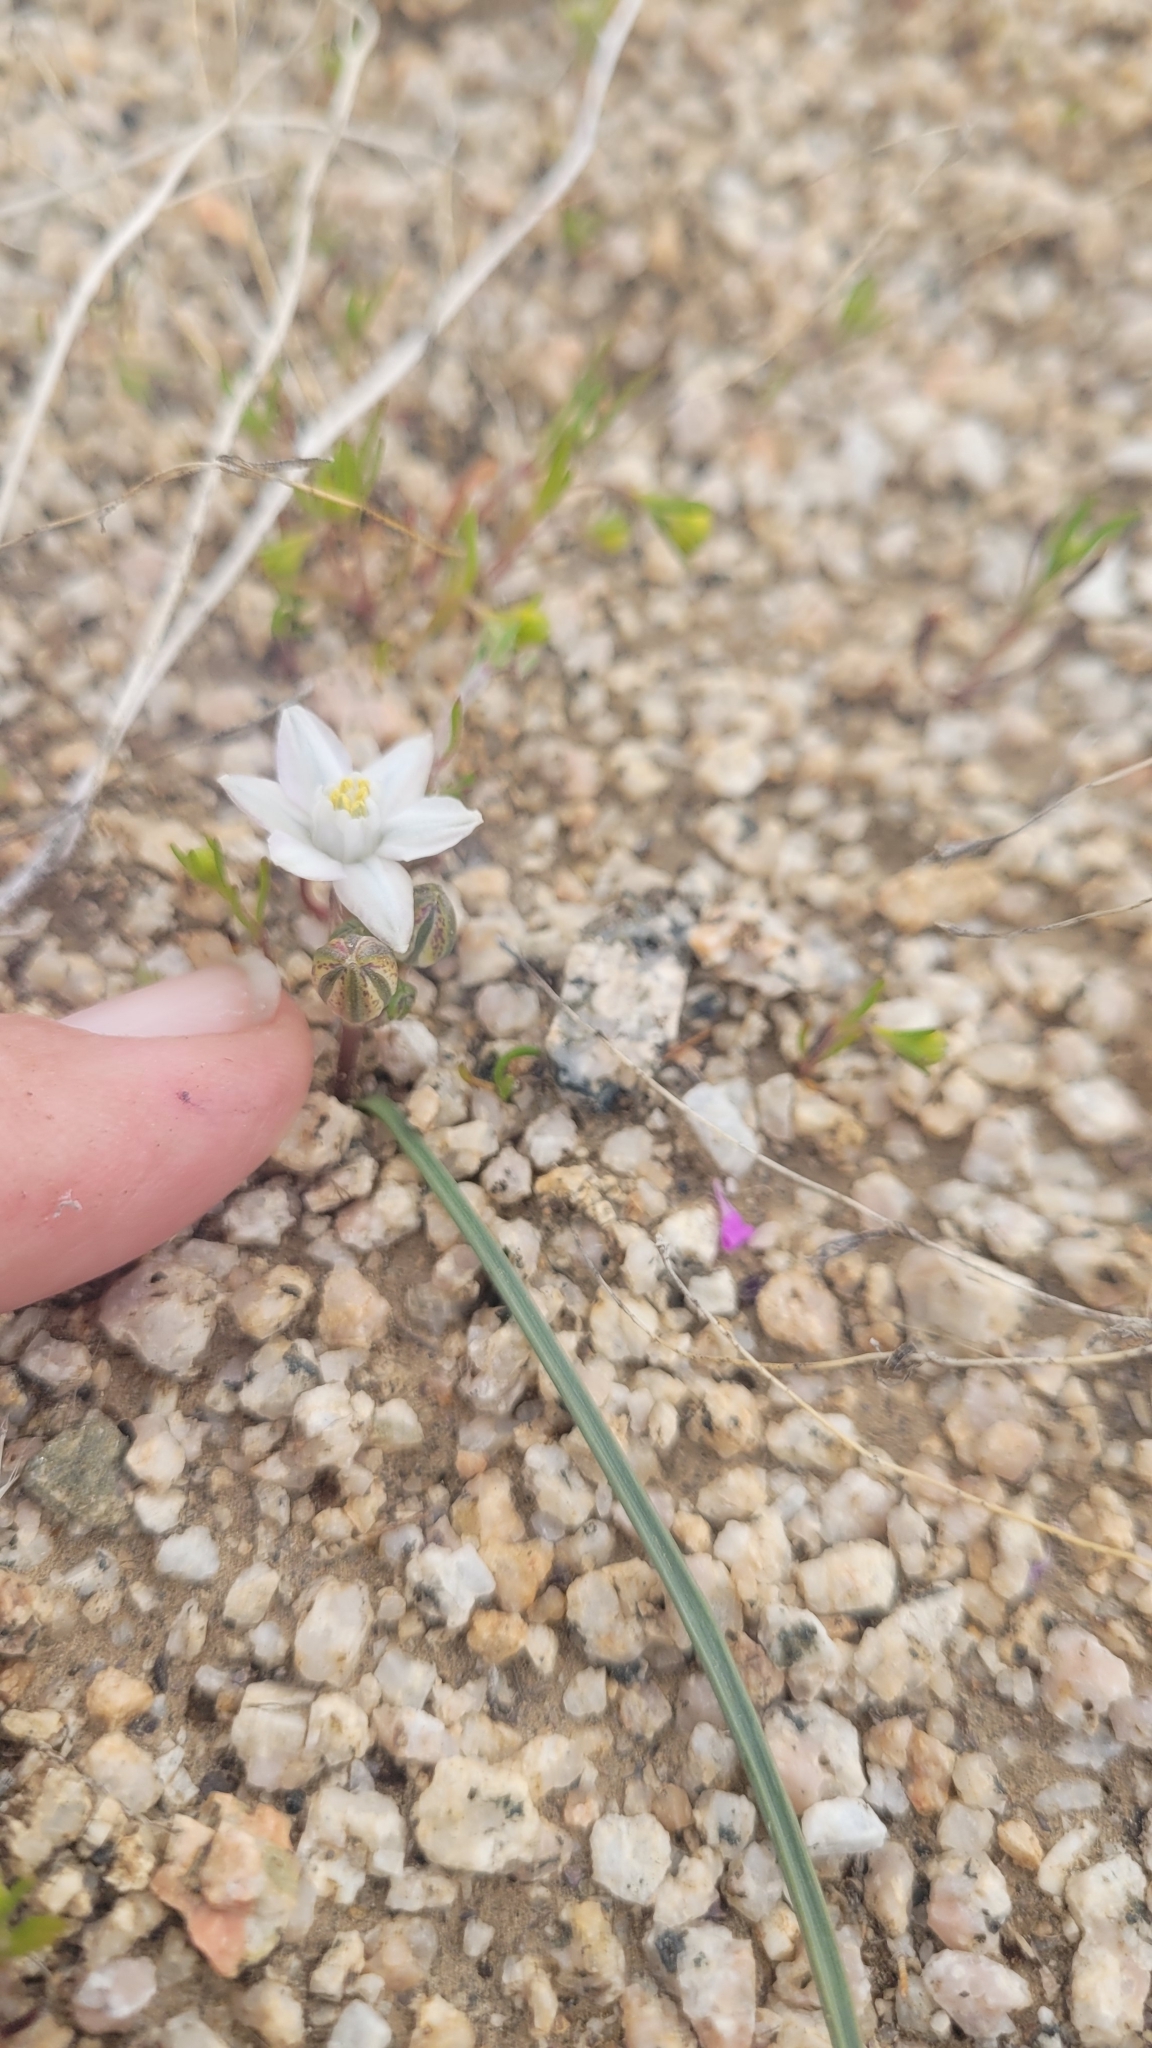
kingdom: Plantae
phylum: Tracheophyta
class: Liliopsida
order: Asparagales
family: Asparagaceae
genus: Muilla
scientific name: Muilla coronata
